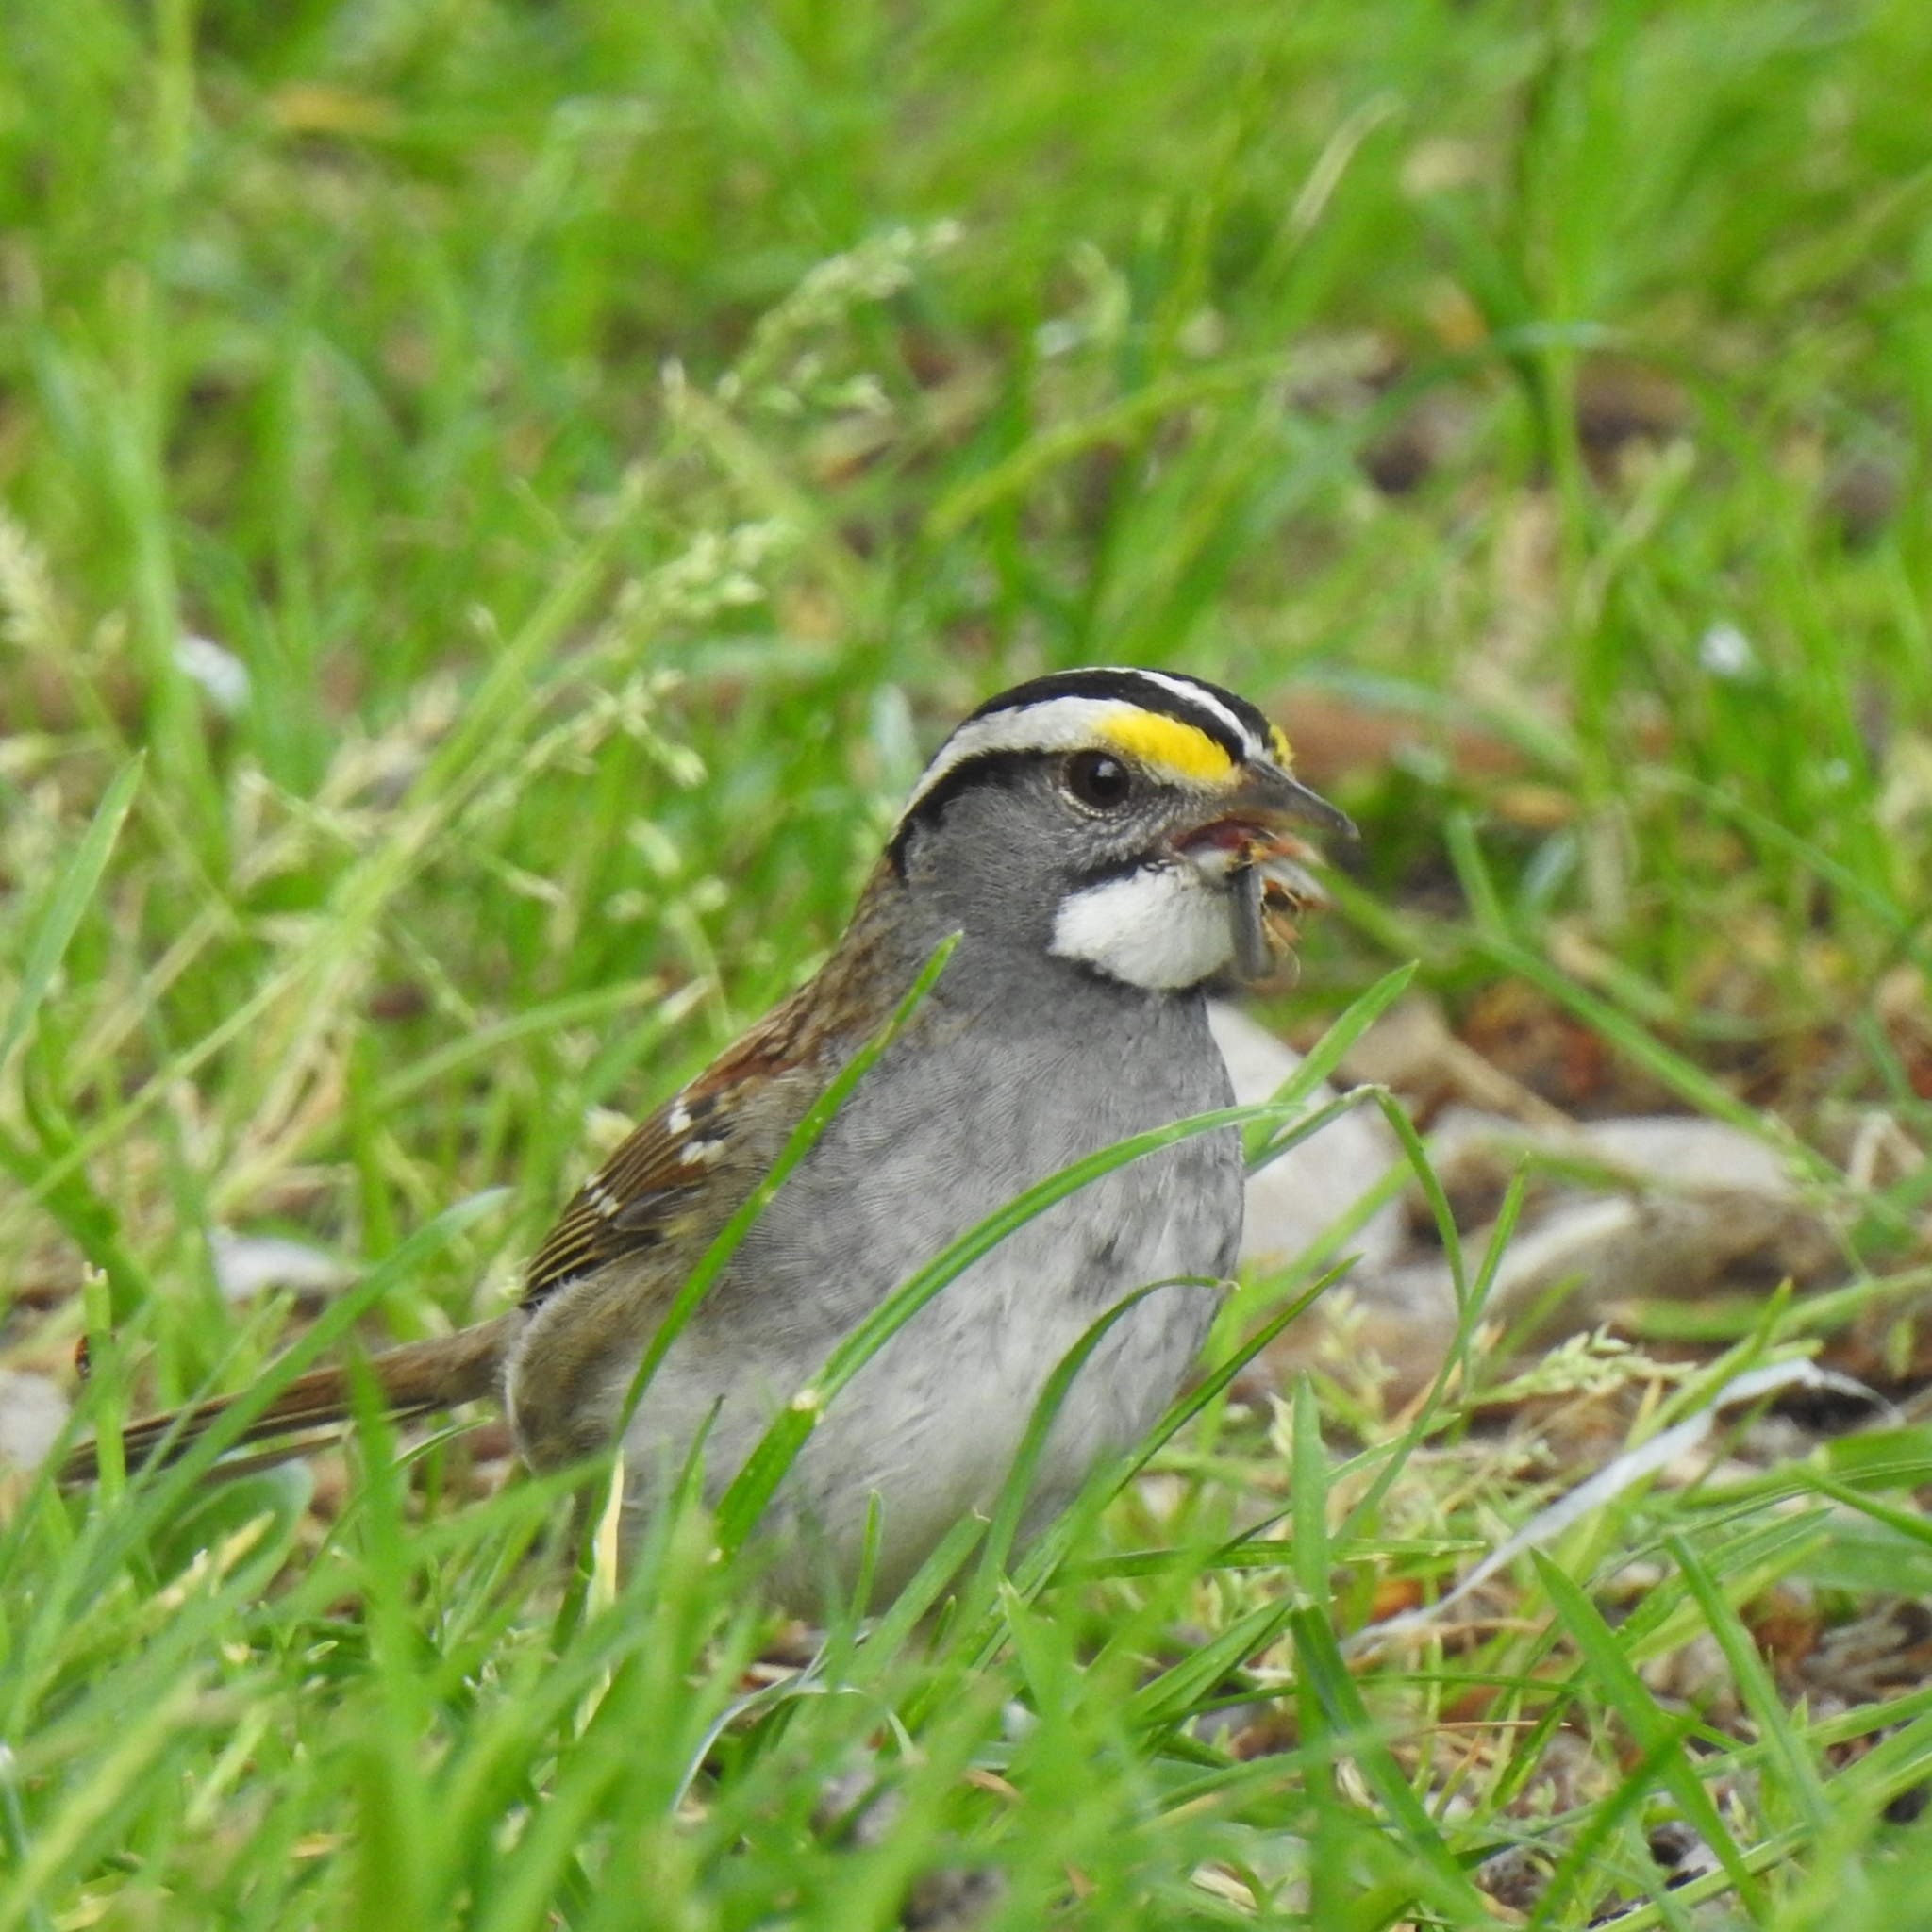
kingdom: Animalia
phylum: Chordata
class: Aves
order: Passeriformes
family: Passerellidae
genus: Zonotrichia
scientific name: Zonotrichia albicollis
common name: White-throated sparrow
